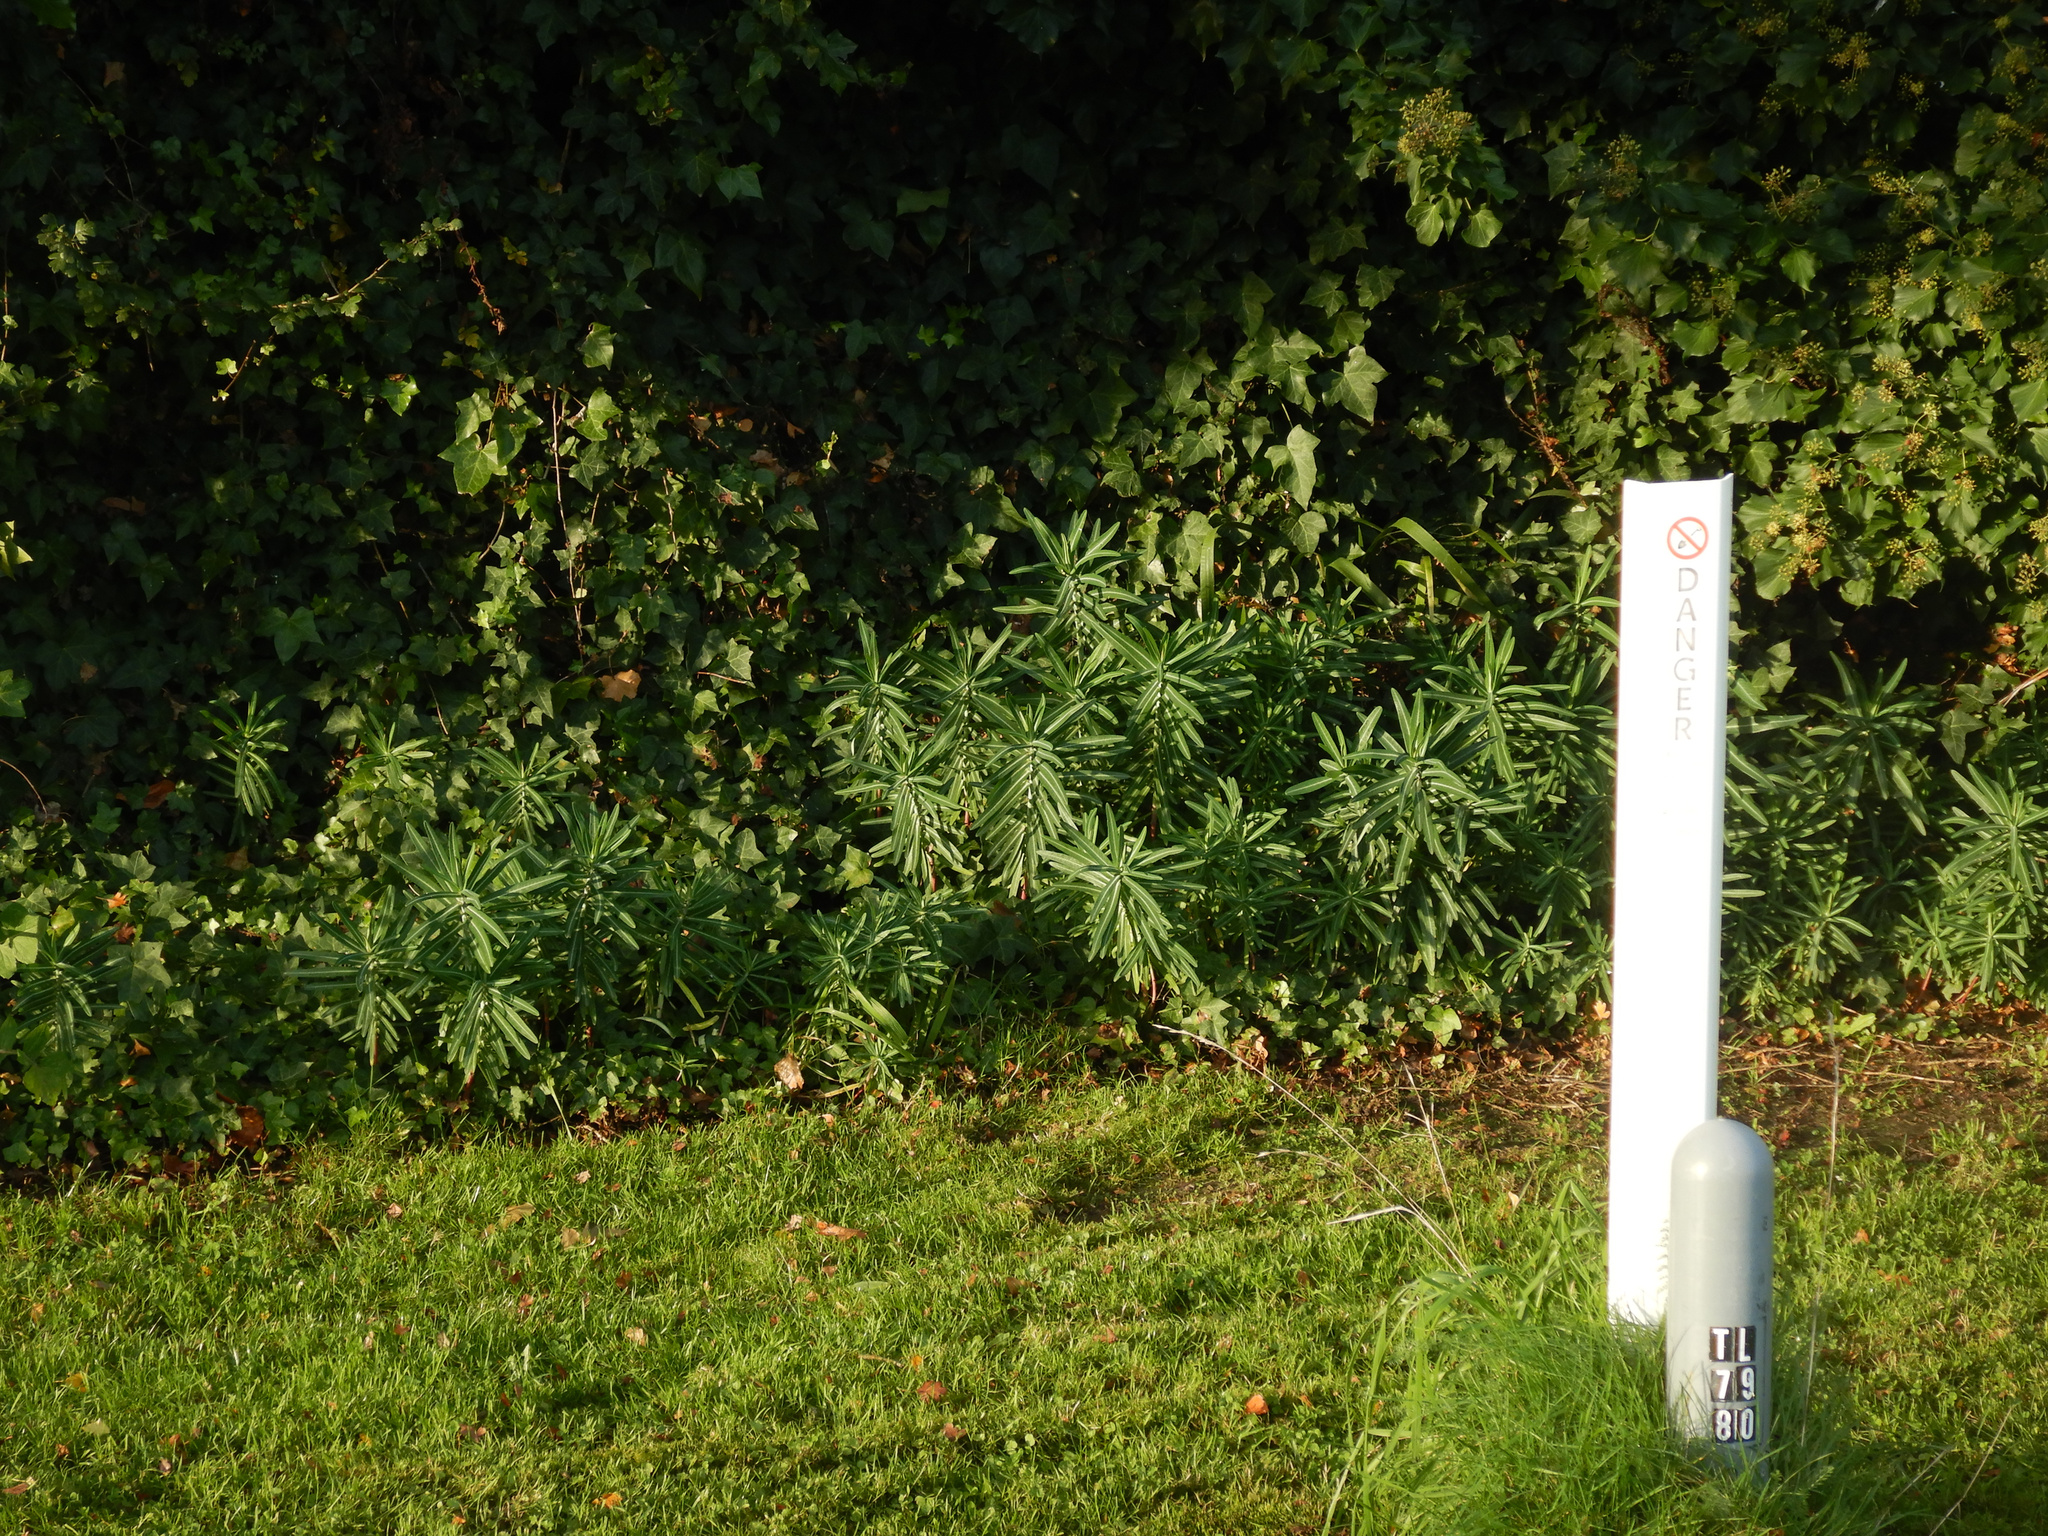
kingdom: Plantae
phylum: Tracheophyta
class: Magnoliopsida
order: Malpighiales
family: Euphorbiaceae
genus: Euphorbia
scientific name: Euphorbia lathyris
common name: Caper spurge
